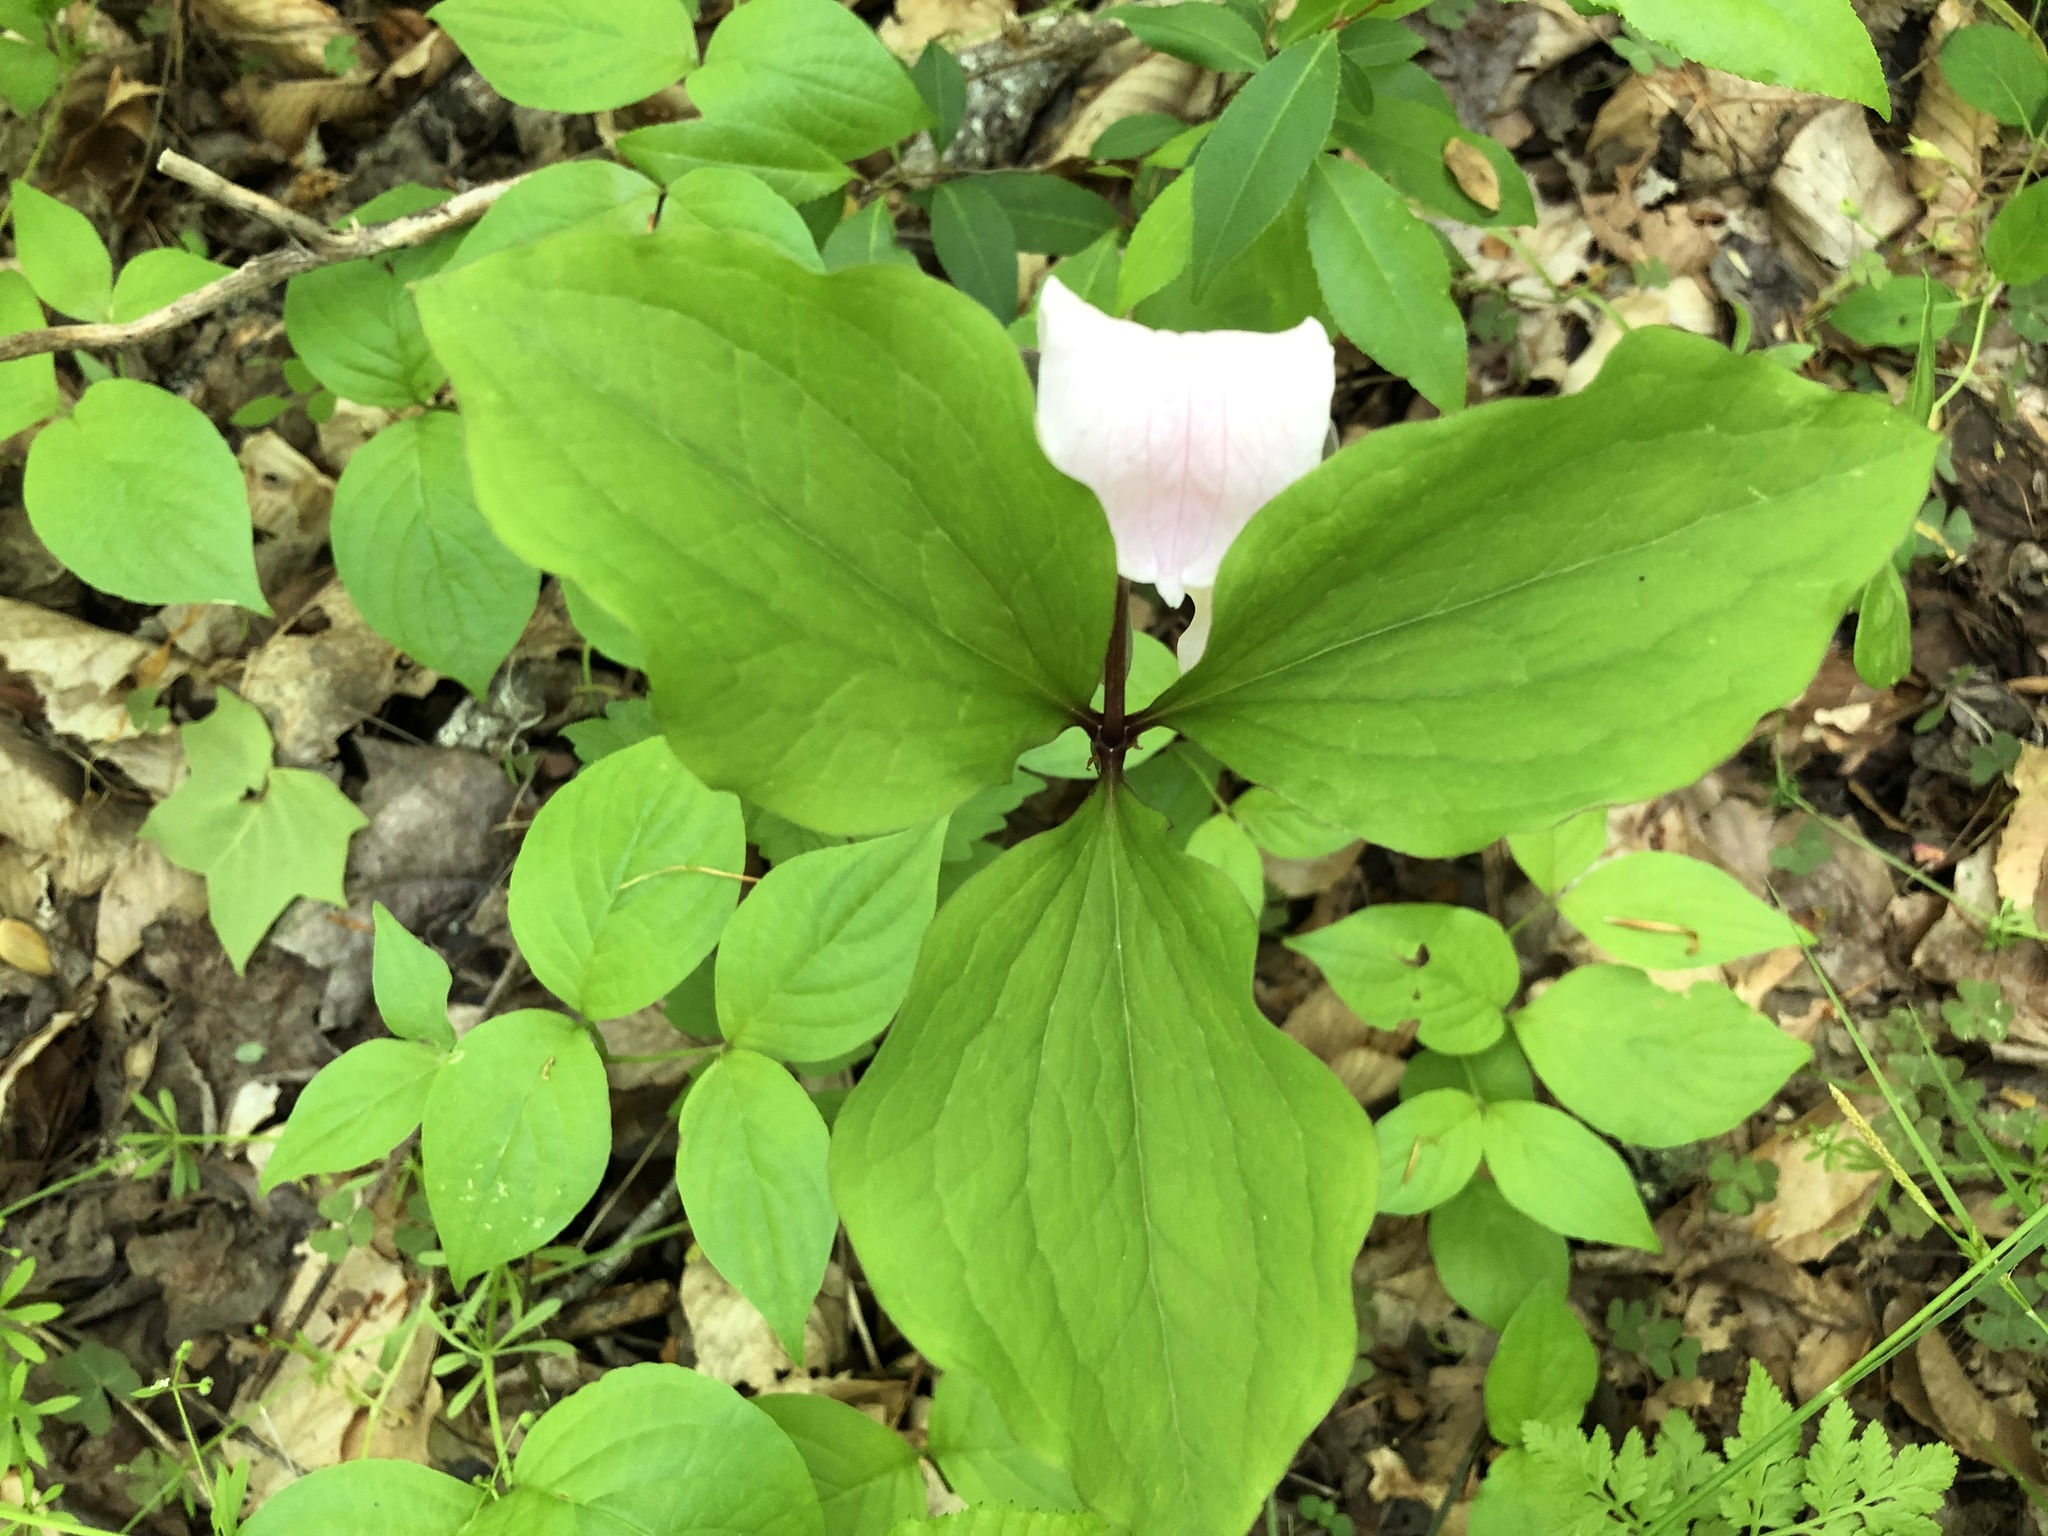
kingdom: Plantae
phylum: Tracheophyta
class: Liliopsida
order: Liliales
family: Melanthiaceae
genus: Trillium
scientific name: Trillium catesbaei
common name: Bashful trillium
